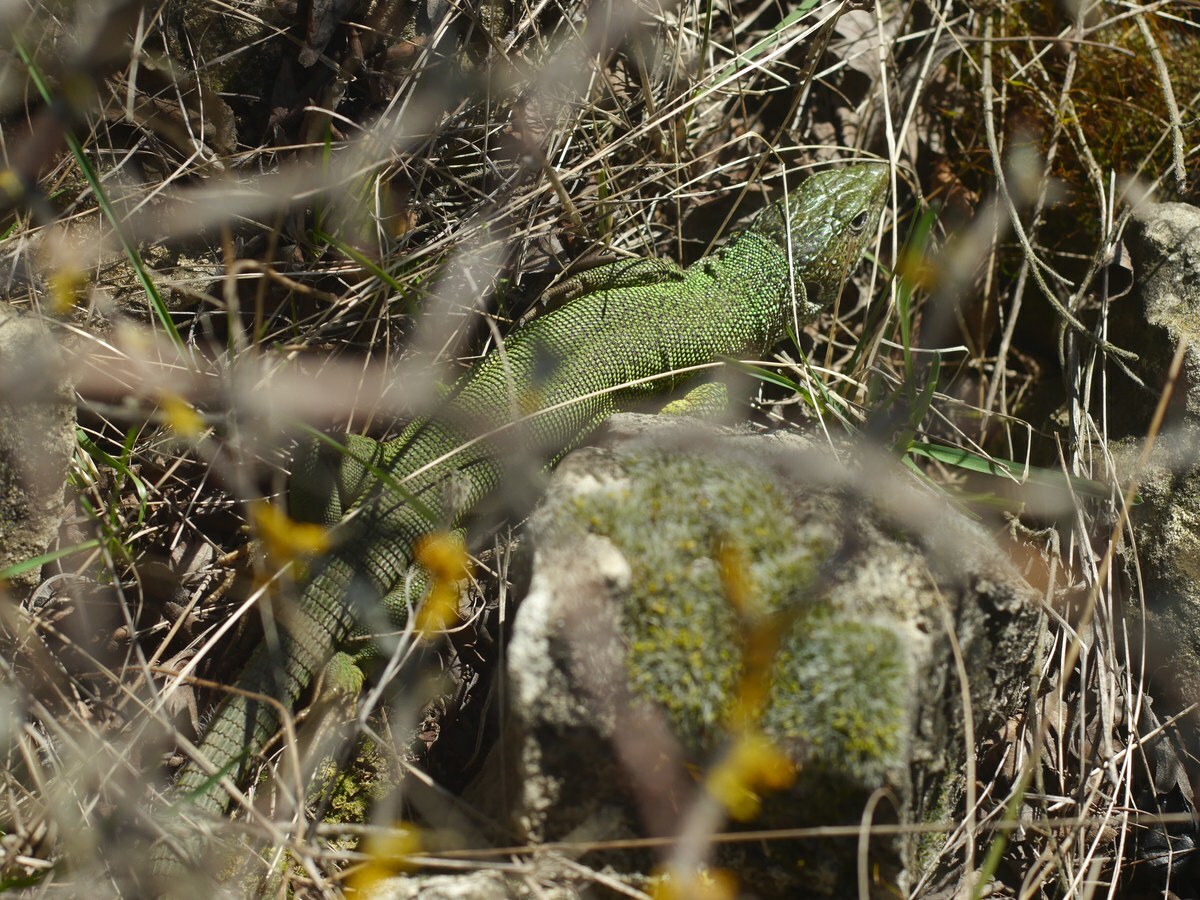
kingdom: Animalia
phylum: Chordata
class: Squamata
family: Lacertidae
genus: Lacerta
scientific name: Lacerta viridis
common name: European green lizard
